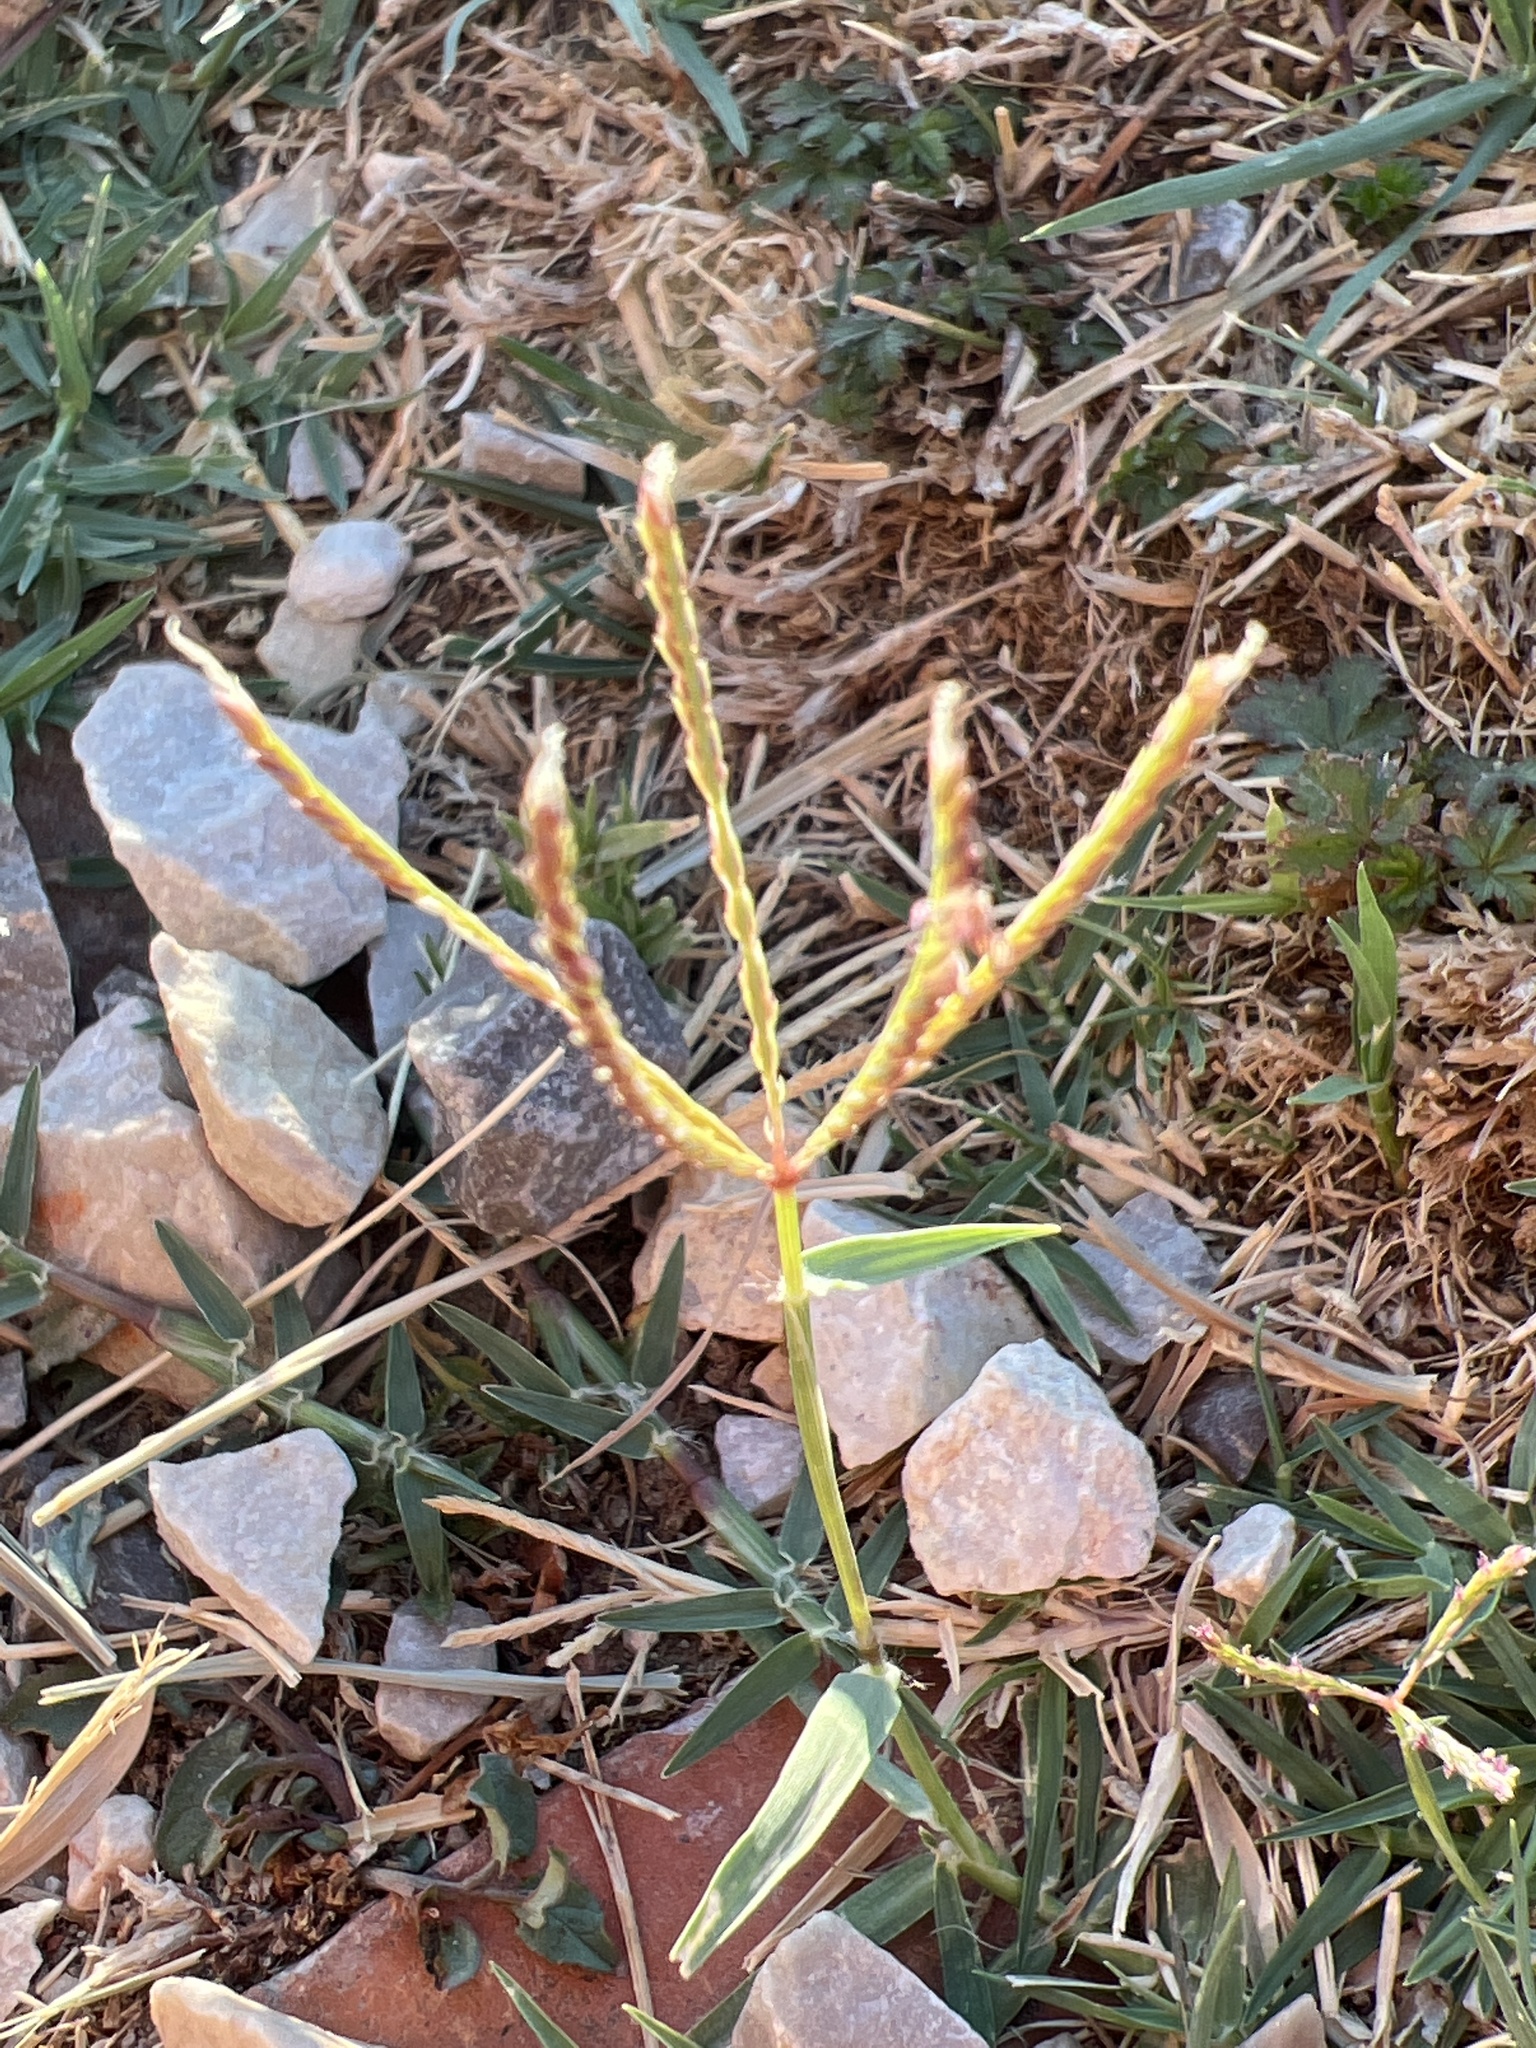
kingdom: Plantae
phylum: Tracheophyta
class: Liliopsida
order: Poales
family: Poaceae
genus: Cynodon
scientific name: Cynodon dactylon
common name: Bermuda grass
